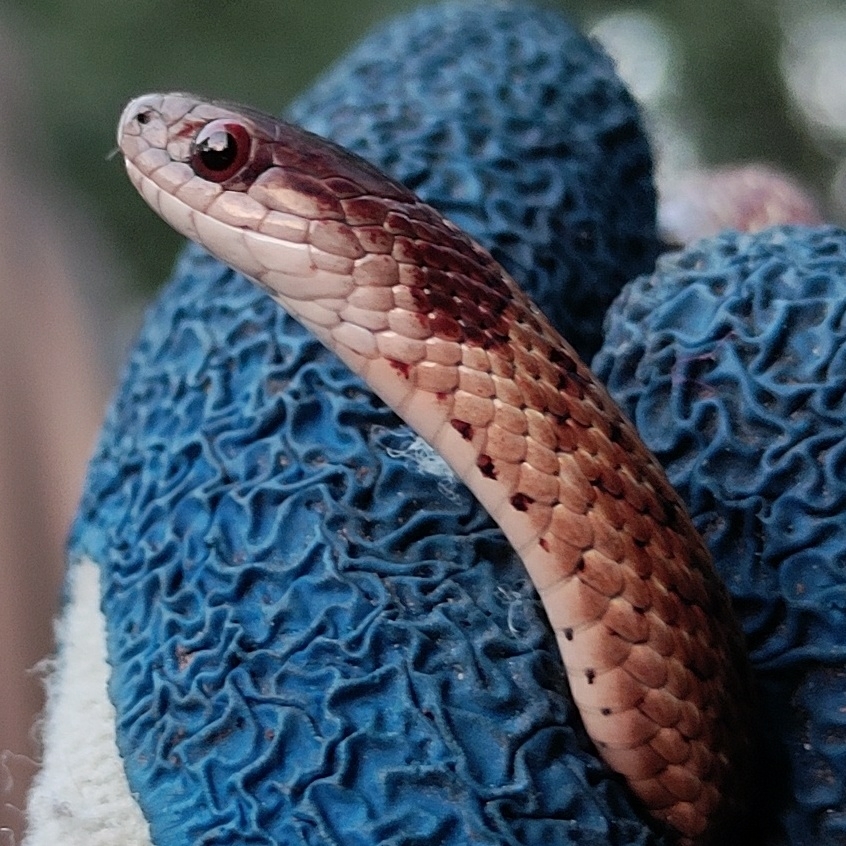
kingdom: Animalia
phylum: Chordata
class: Squamata
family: Colubridae
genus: Storeria
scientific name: Storeria dekayi
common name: (dekay’s) brown snake
